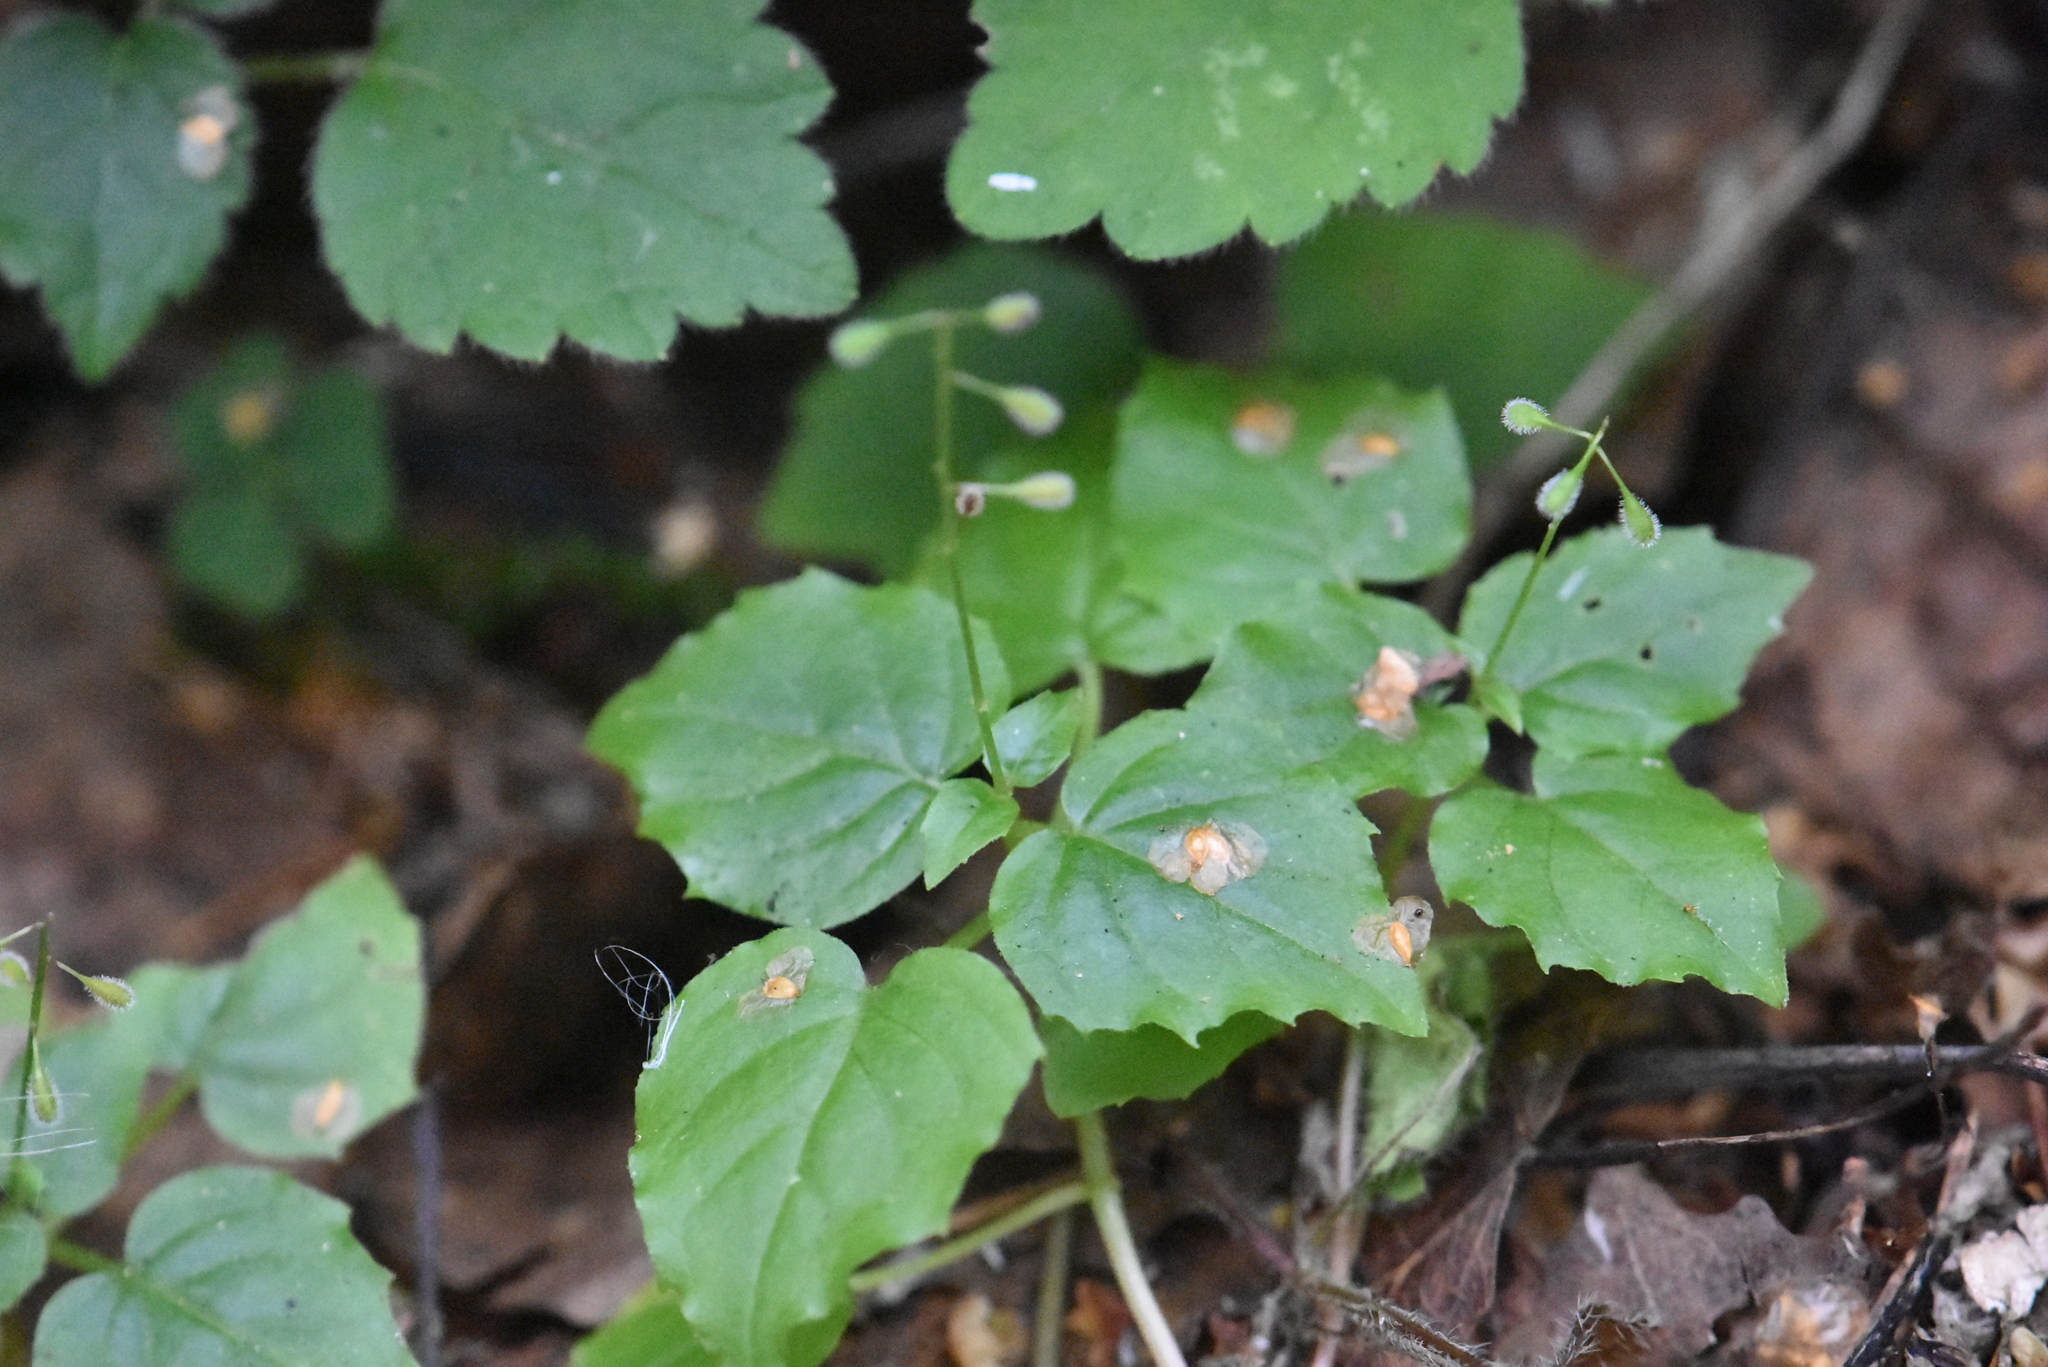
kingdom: Plantae
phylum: Tracheophyta
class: Magnoliopsida
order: Myrtales
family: Onagraceae
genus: Circaea
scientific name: Circaea alpina
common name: Alpine enchanter's-nightshade
